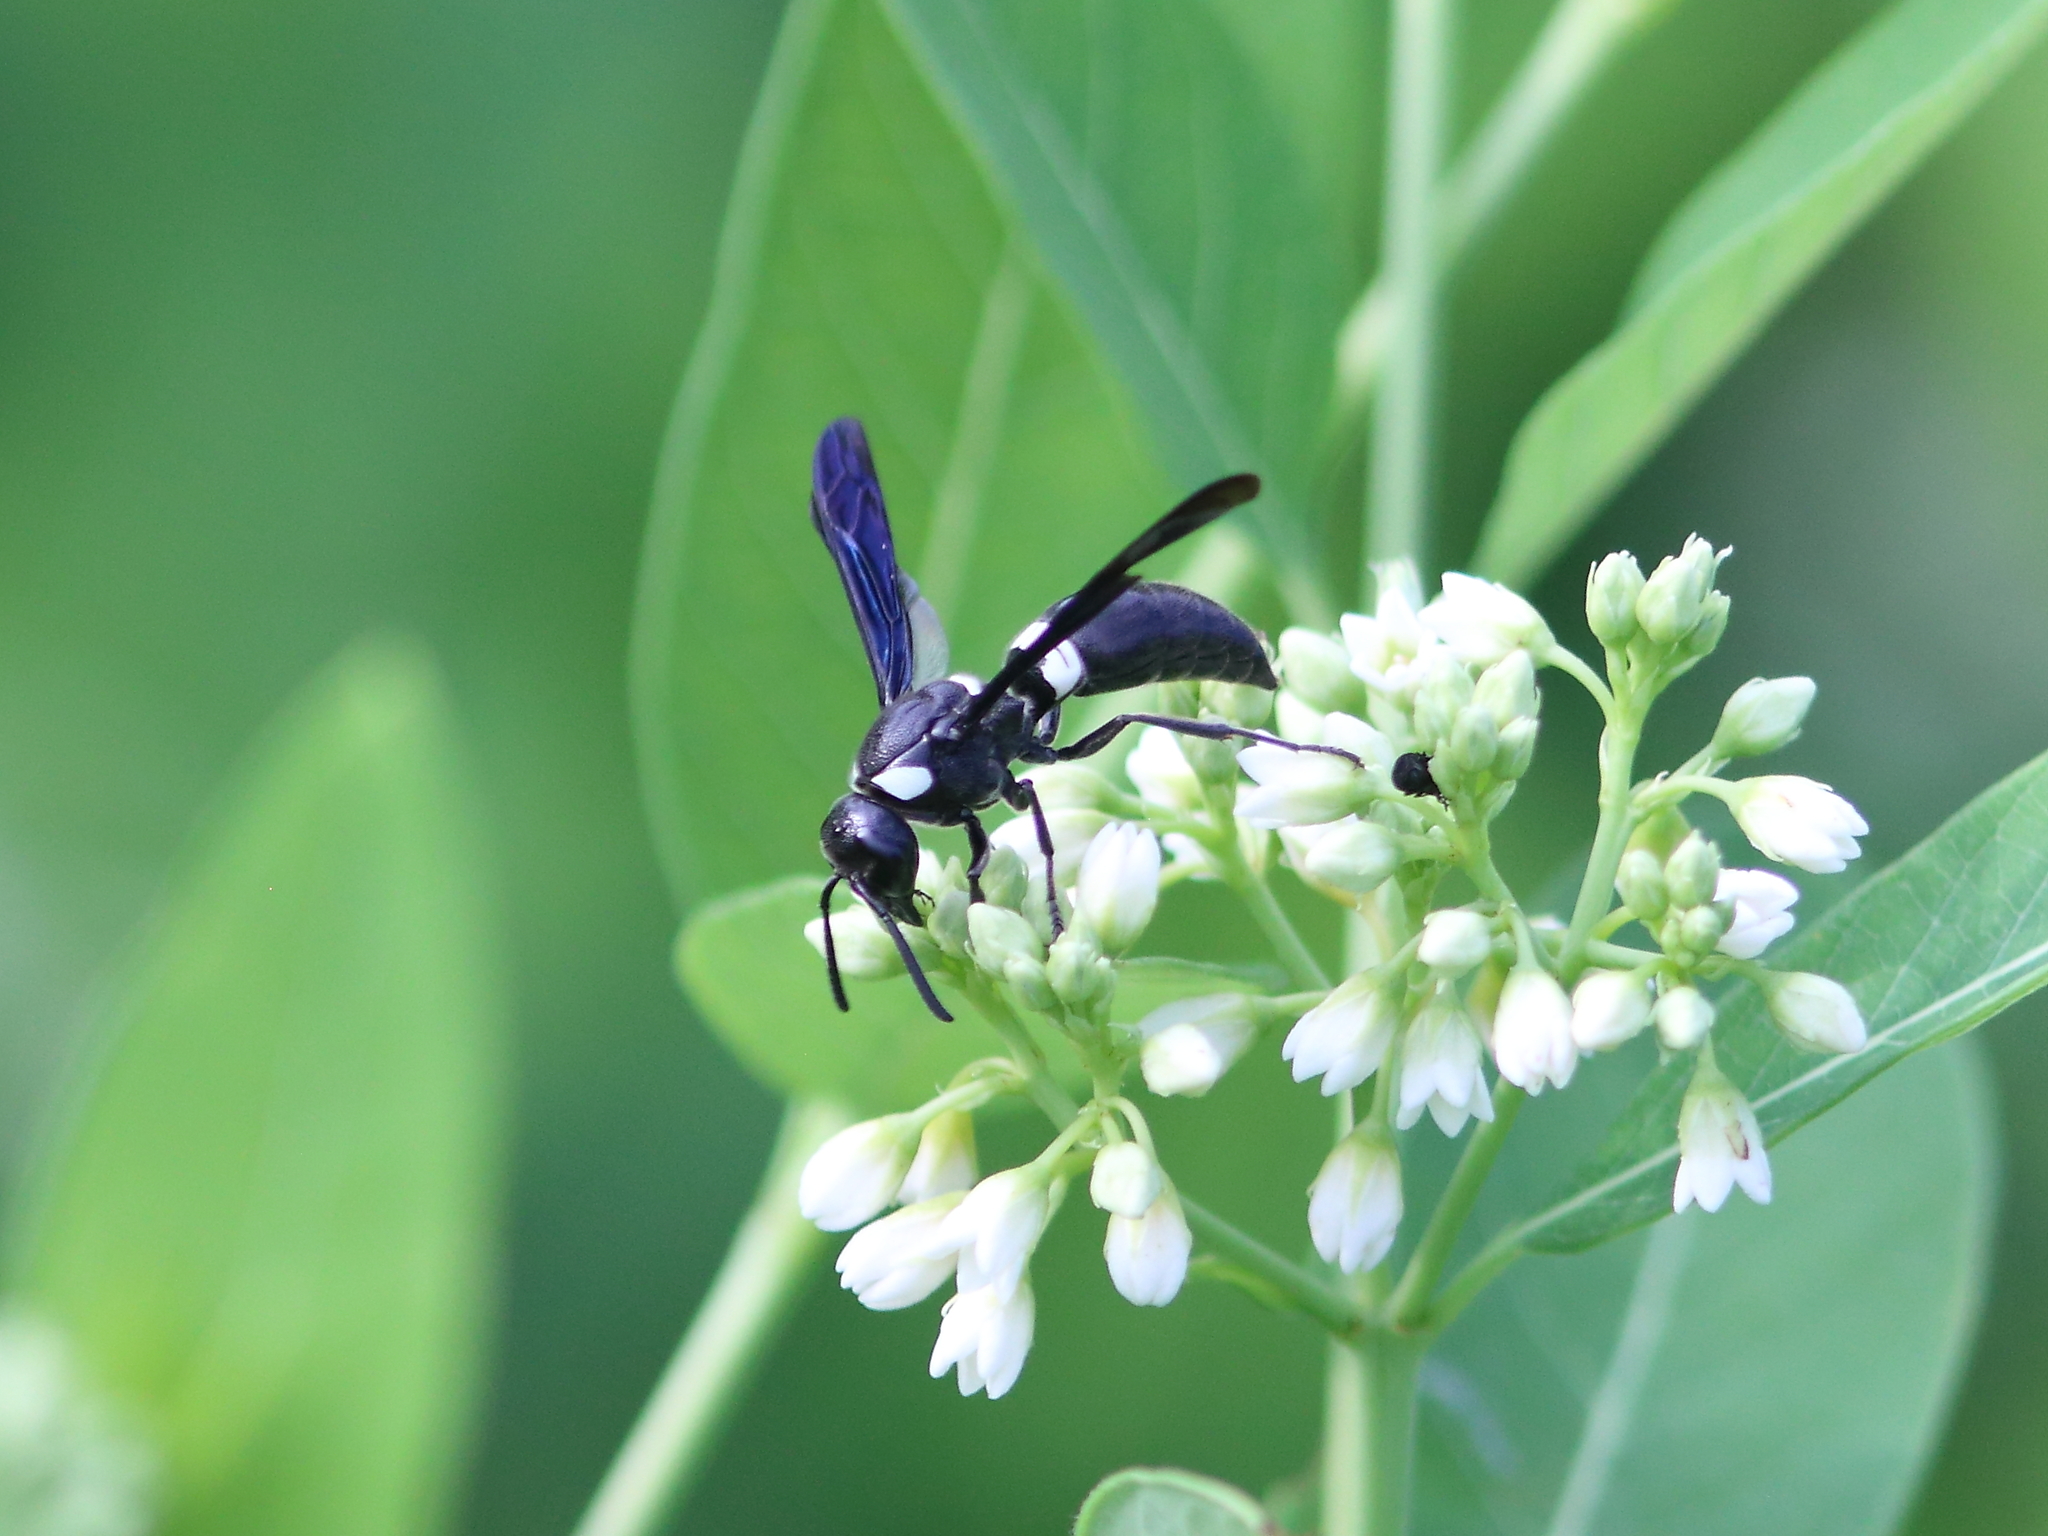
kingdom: Animalia
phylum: Arthropoda
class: Insecta
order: Hymenoptera
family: Eumenidae
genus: Monobia
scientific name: Monobia quadridens
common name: Four-toothed mason wasp
